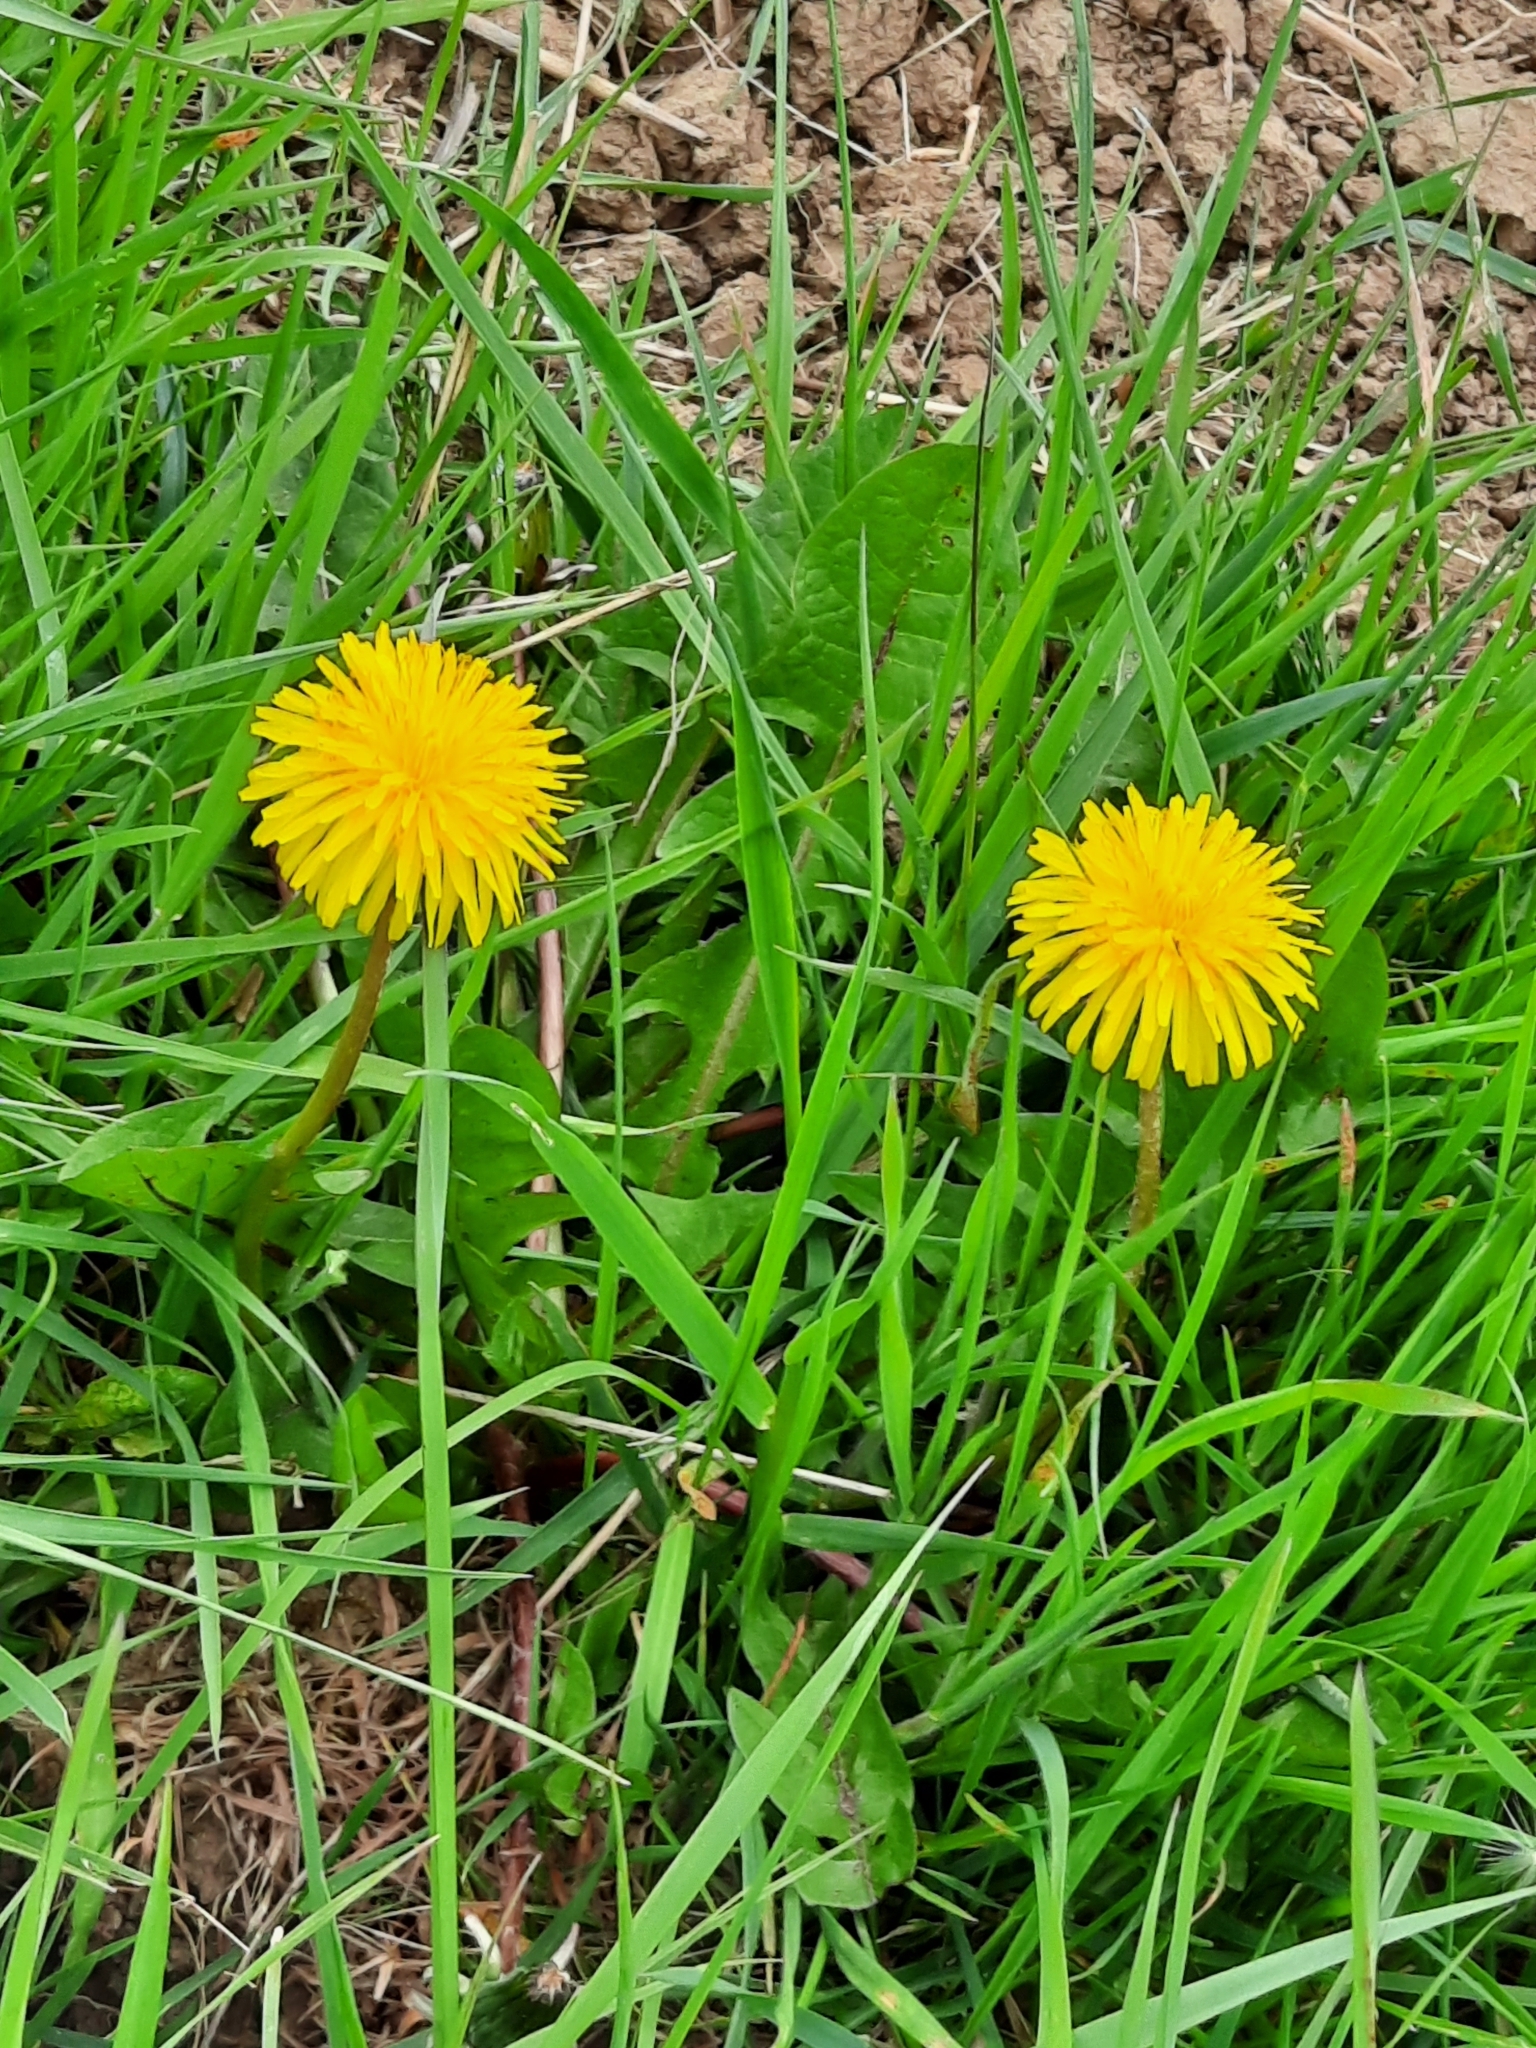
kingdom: Plantae
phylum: Tracheophyta
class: Magnoliopsida
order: Asterales
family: Asteraceae
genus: Taraxacum
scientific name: Taraxacum officinale
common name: Common dandelion
